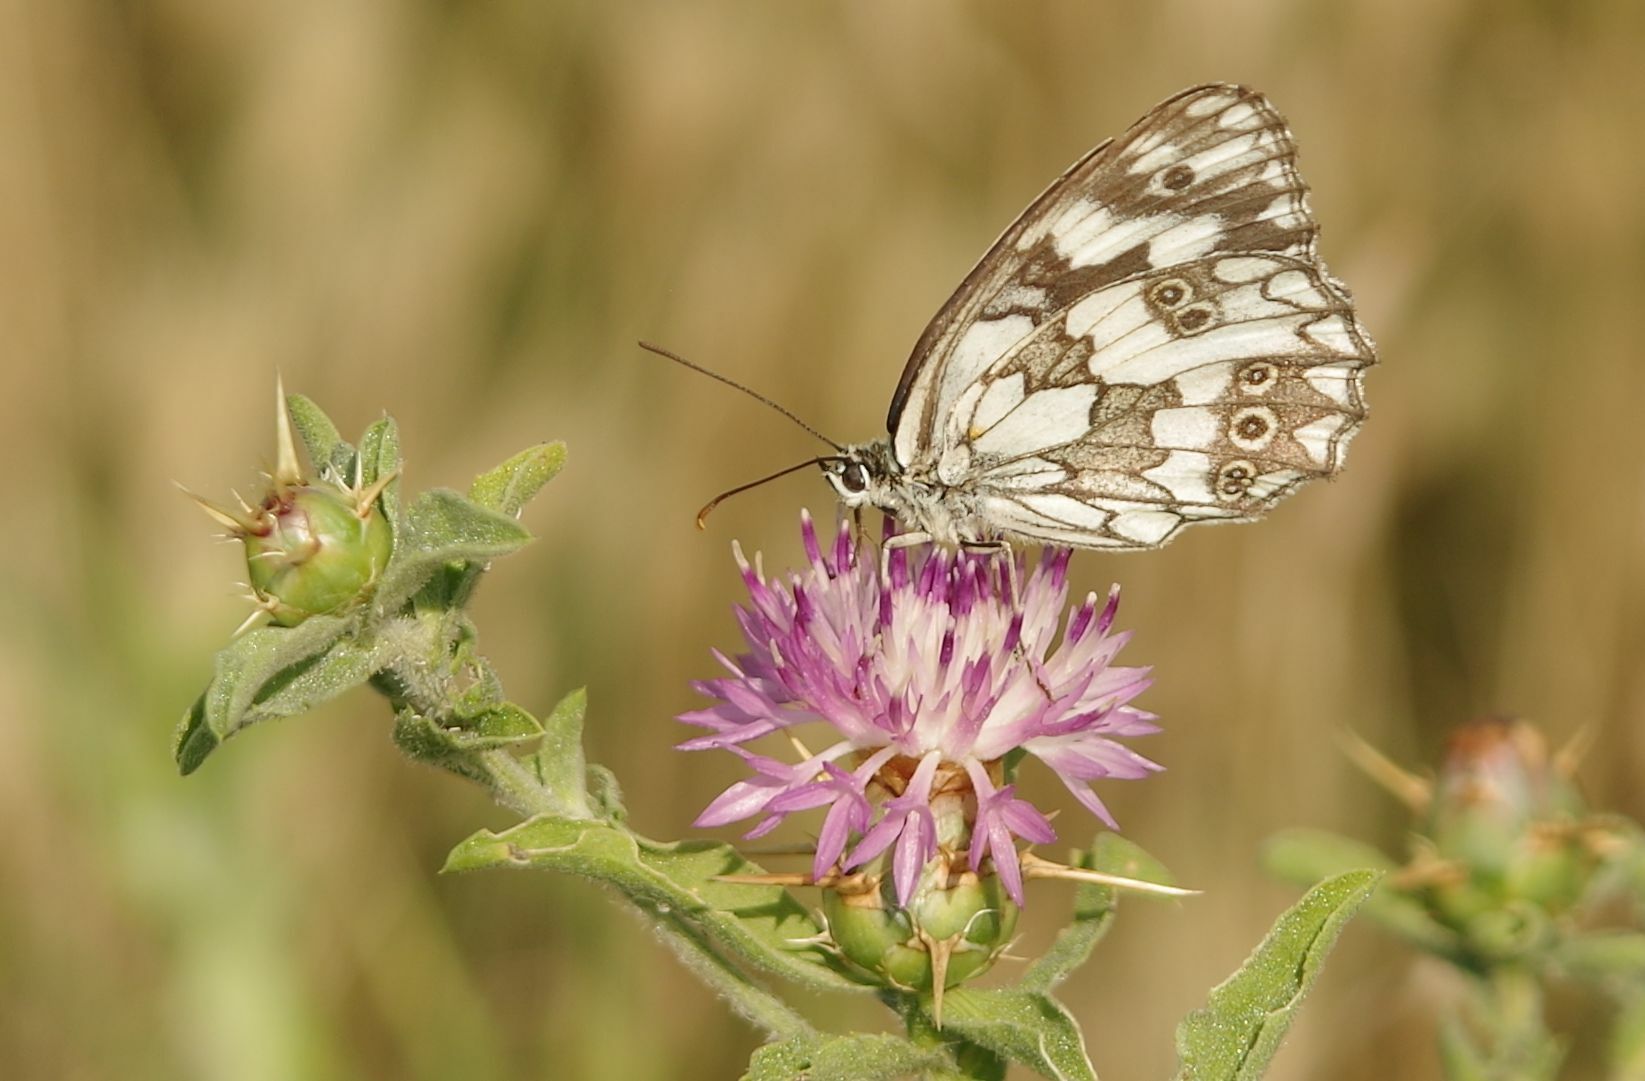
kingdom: Animalia
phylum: Arthropoda
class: Insecta
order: Lepidoptera
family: Nymphalidae
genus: Melanargia
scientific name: Melanargia galathea
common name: Marbled white
